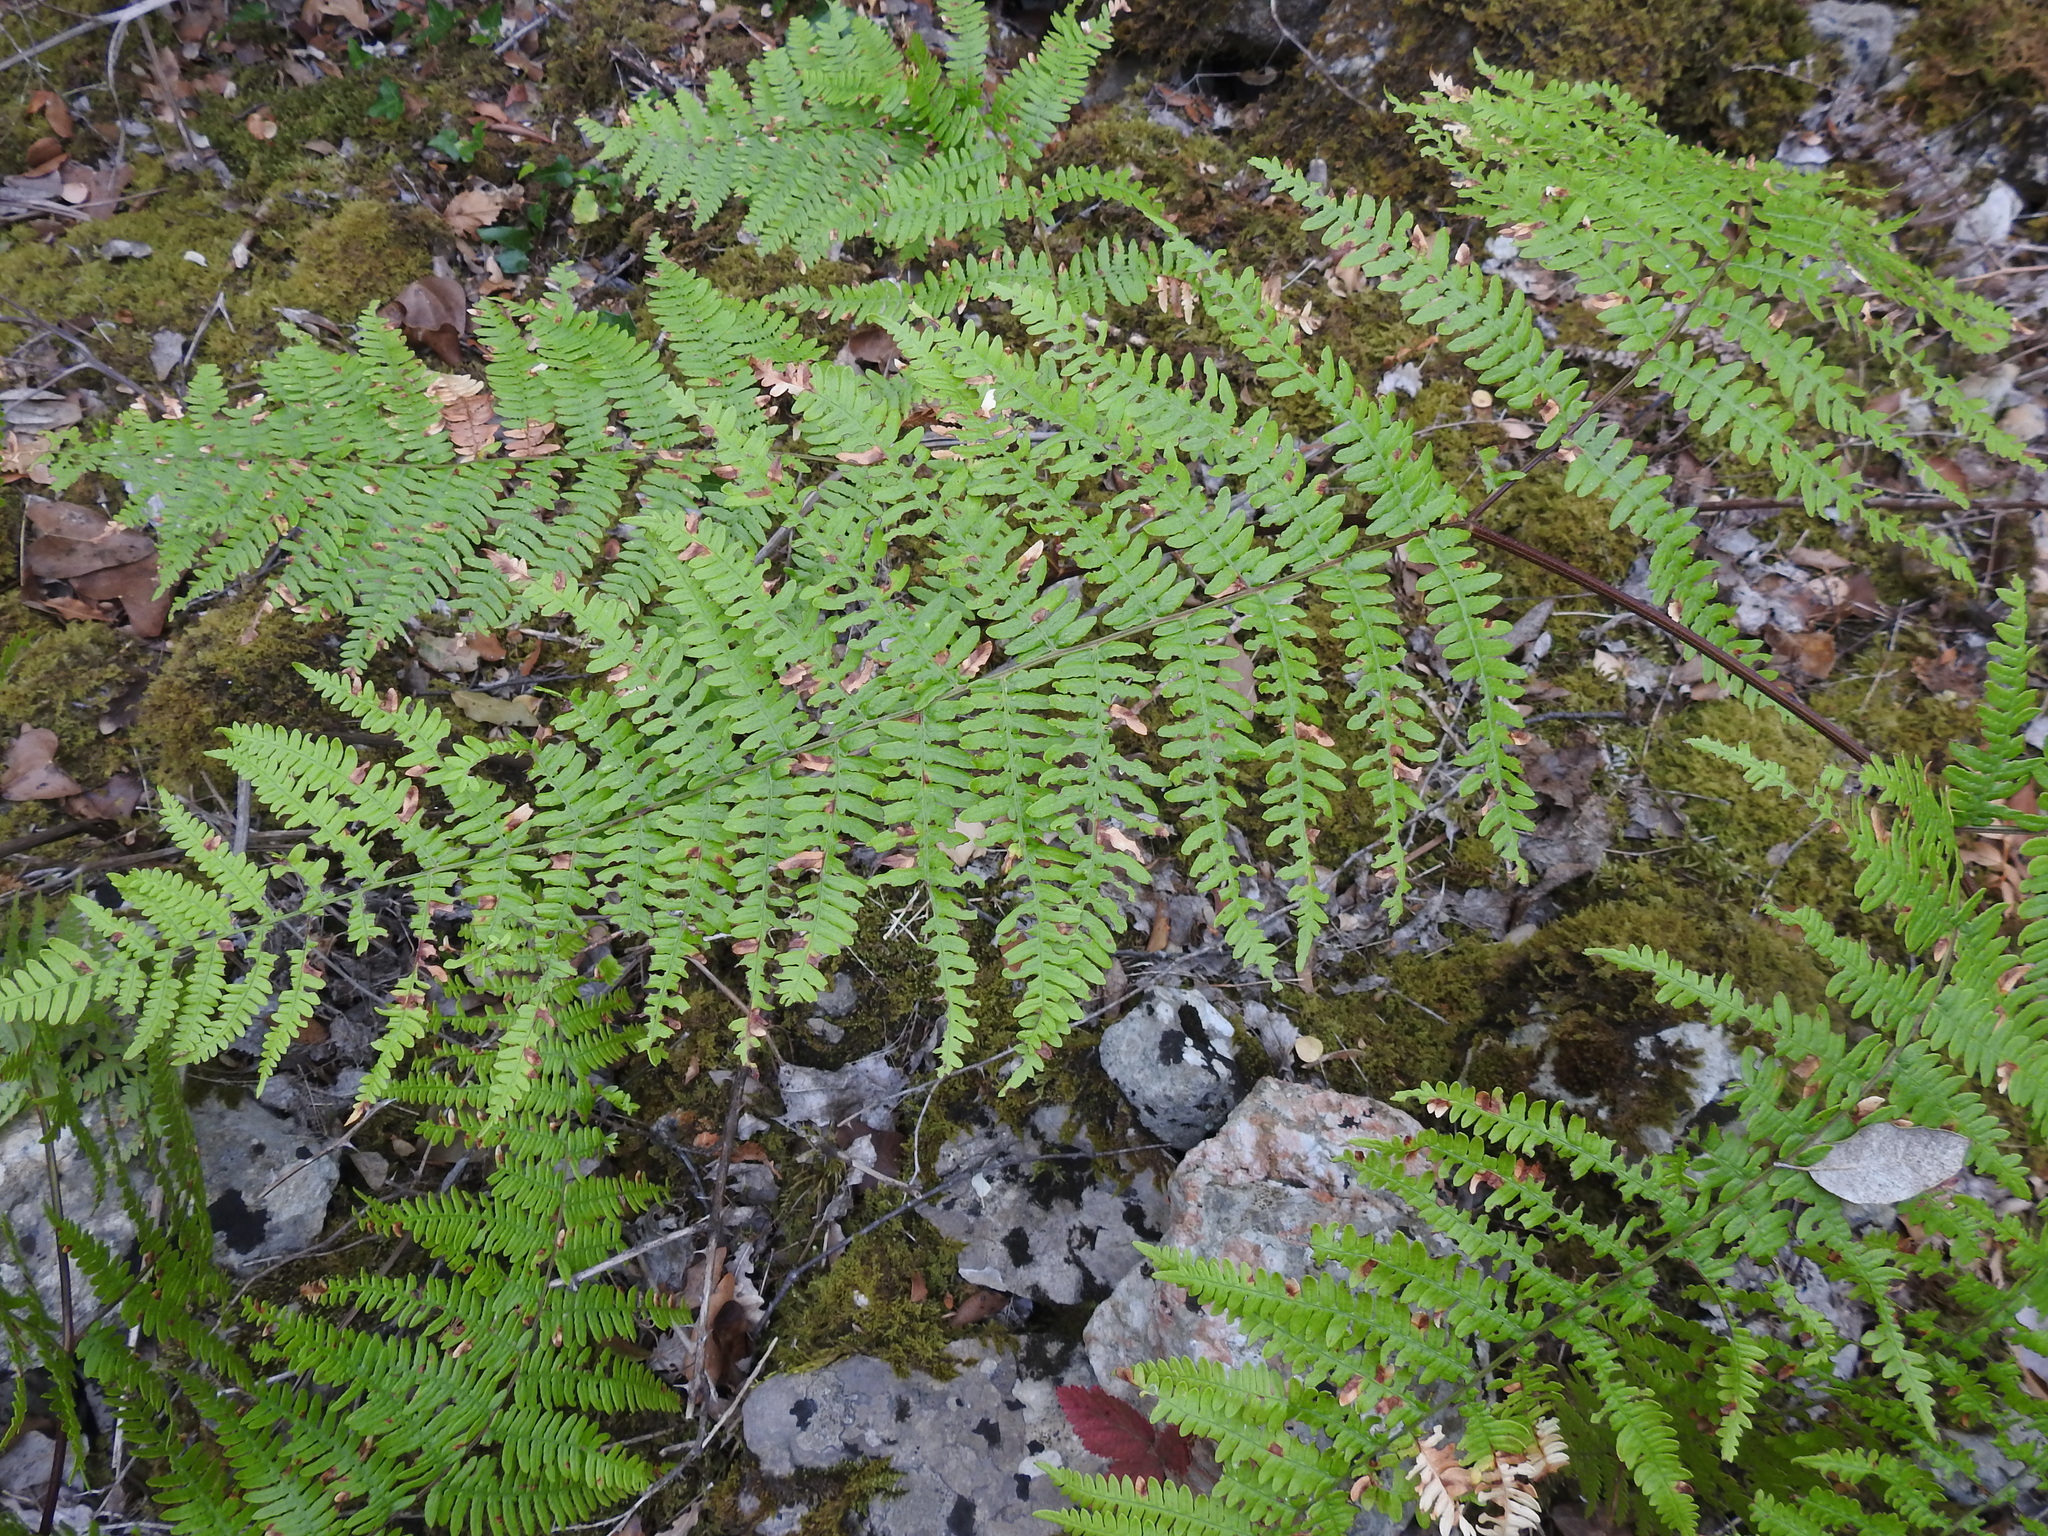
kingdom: Plantae
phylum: Tracheophyta
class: Polypodiopsida
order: Polypodiales
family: Dennstaedtiaceae
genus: Pteridium
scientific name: Pteridium aquilinum
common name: Bracken
